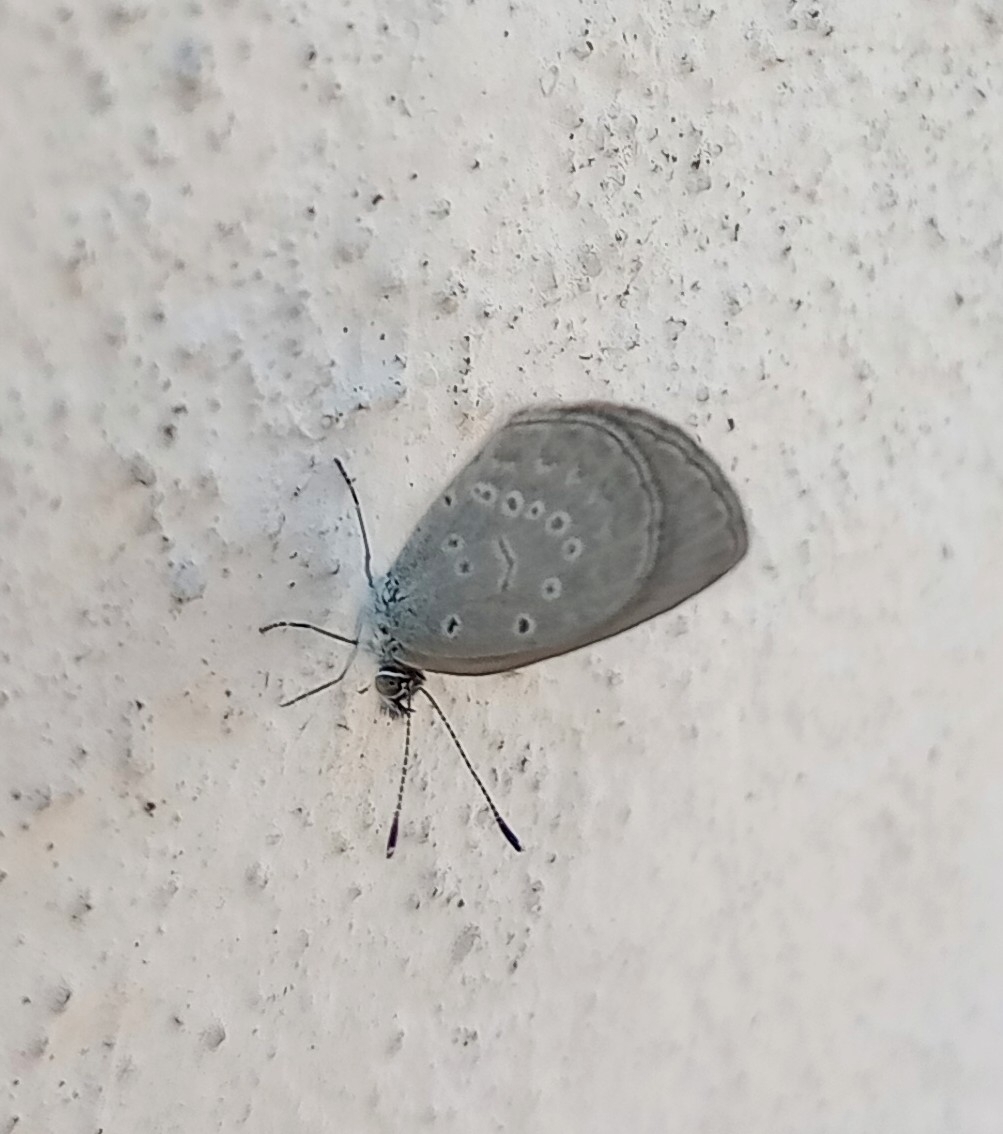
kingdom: Animalia
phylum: Arthropoda
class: Insecta
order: Lepidoptera
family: Lycaenidae
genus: Pseudozizeeria
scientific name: Pseudozizeeria maha
